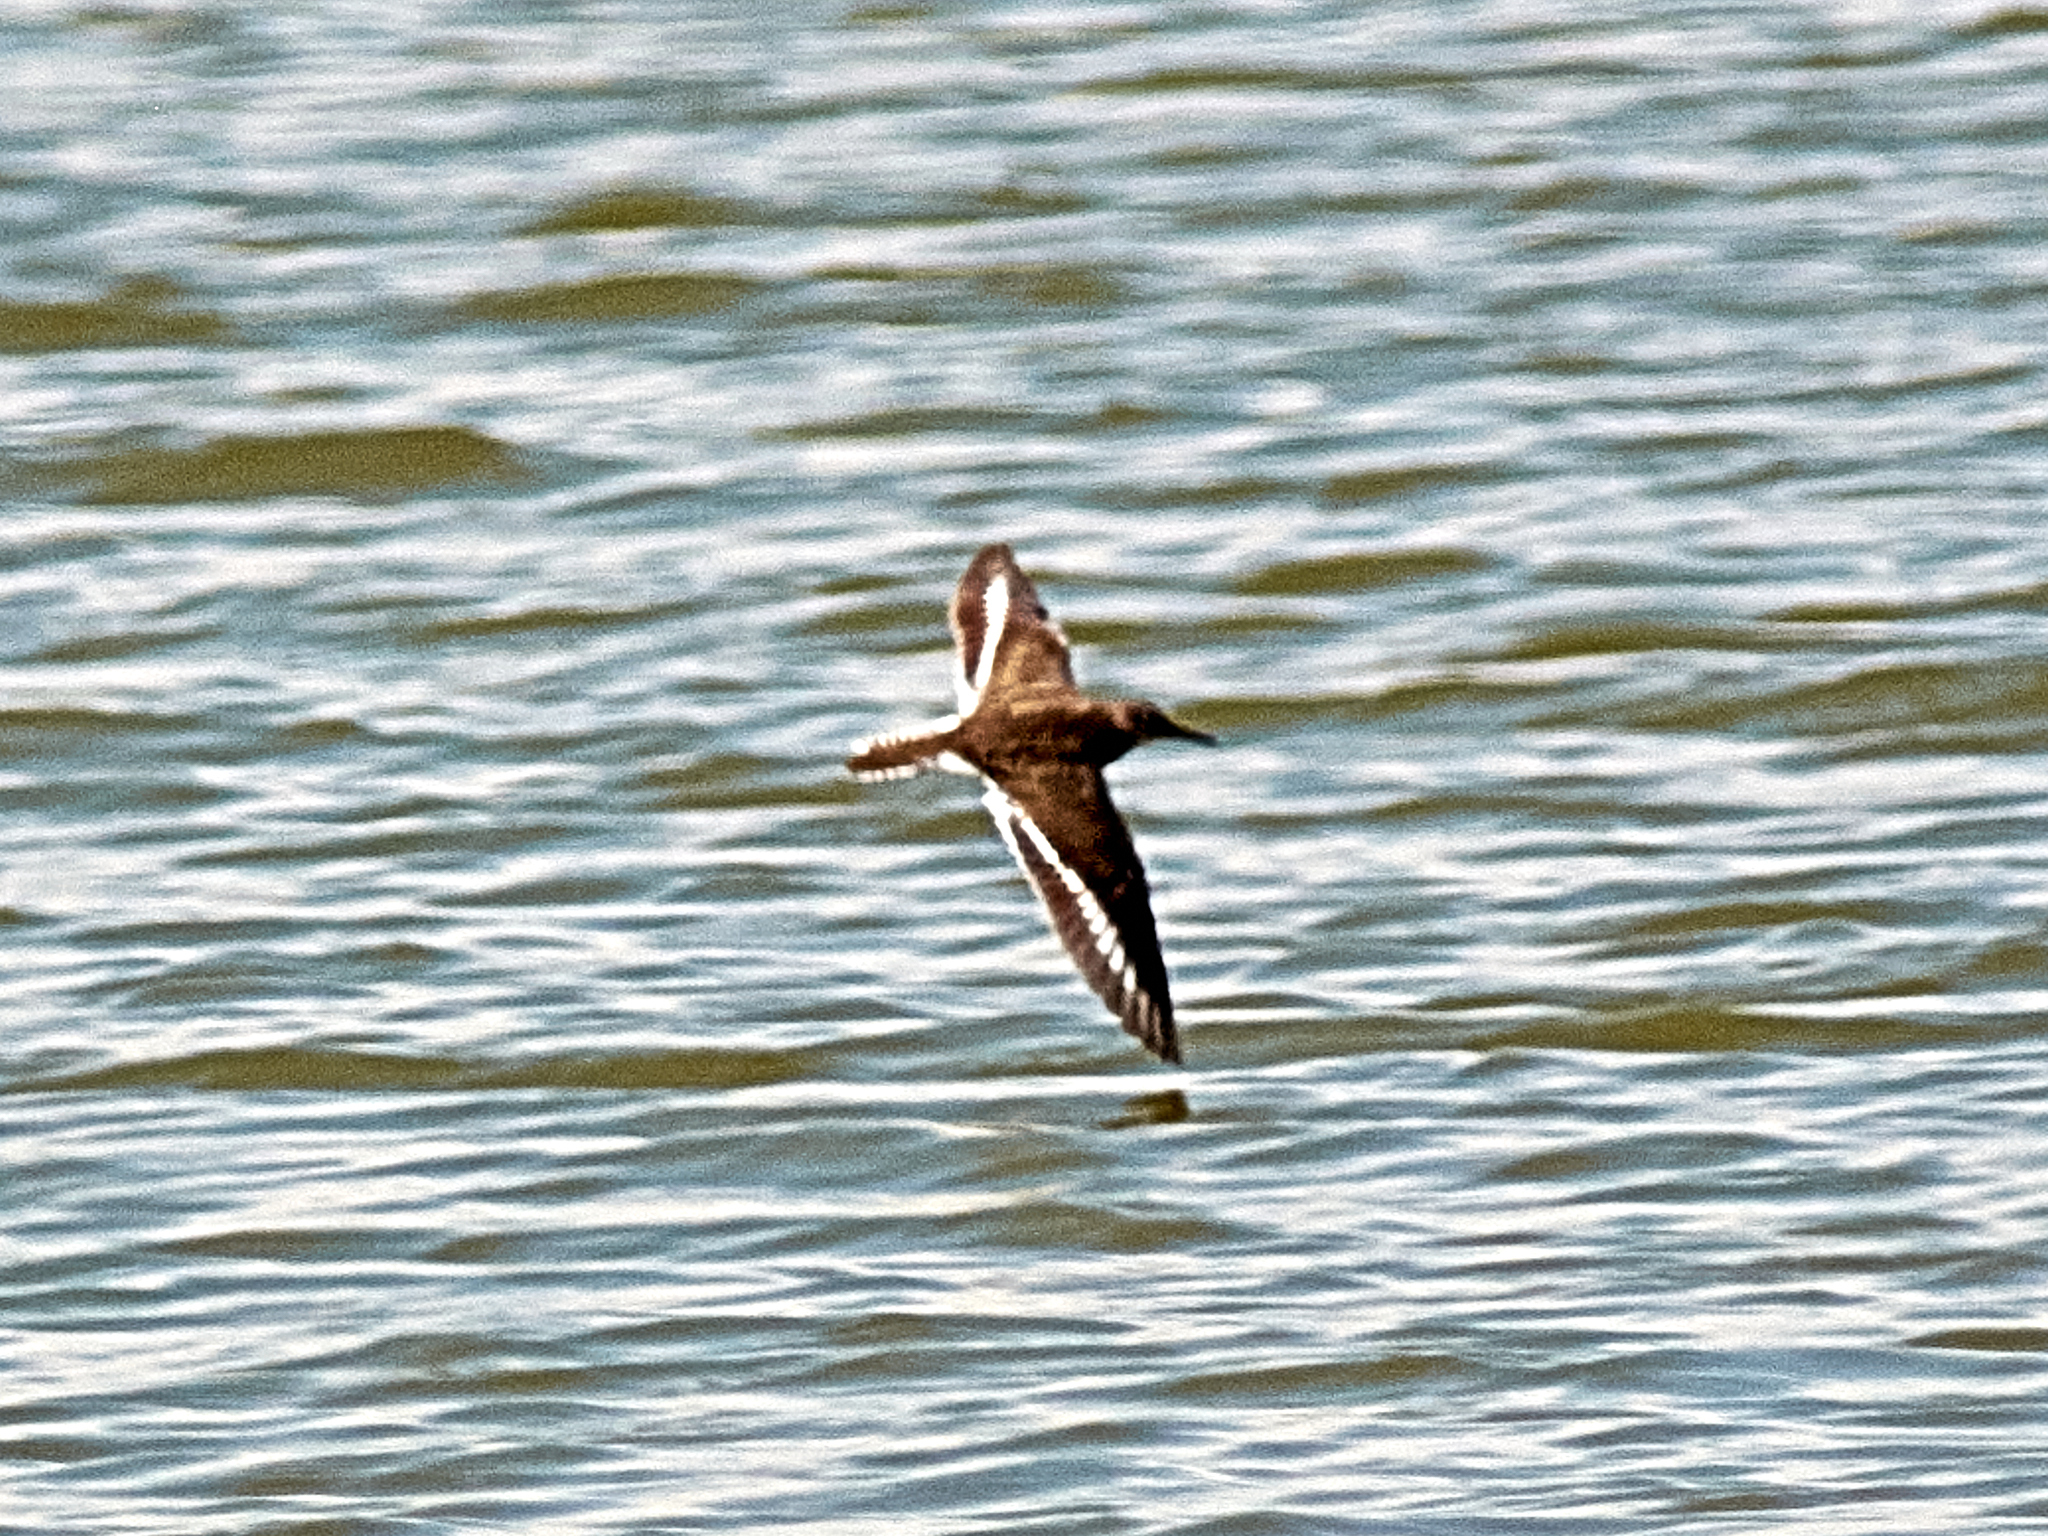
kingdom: Animalia
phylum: Chordata
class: Aves
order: Charadriiformes
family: Scolopacidae
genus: Actitis
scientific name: Actitis hypoleucos
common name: Common sandpiper
